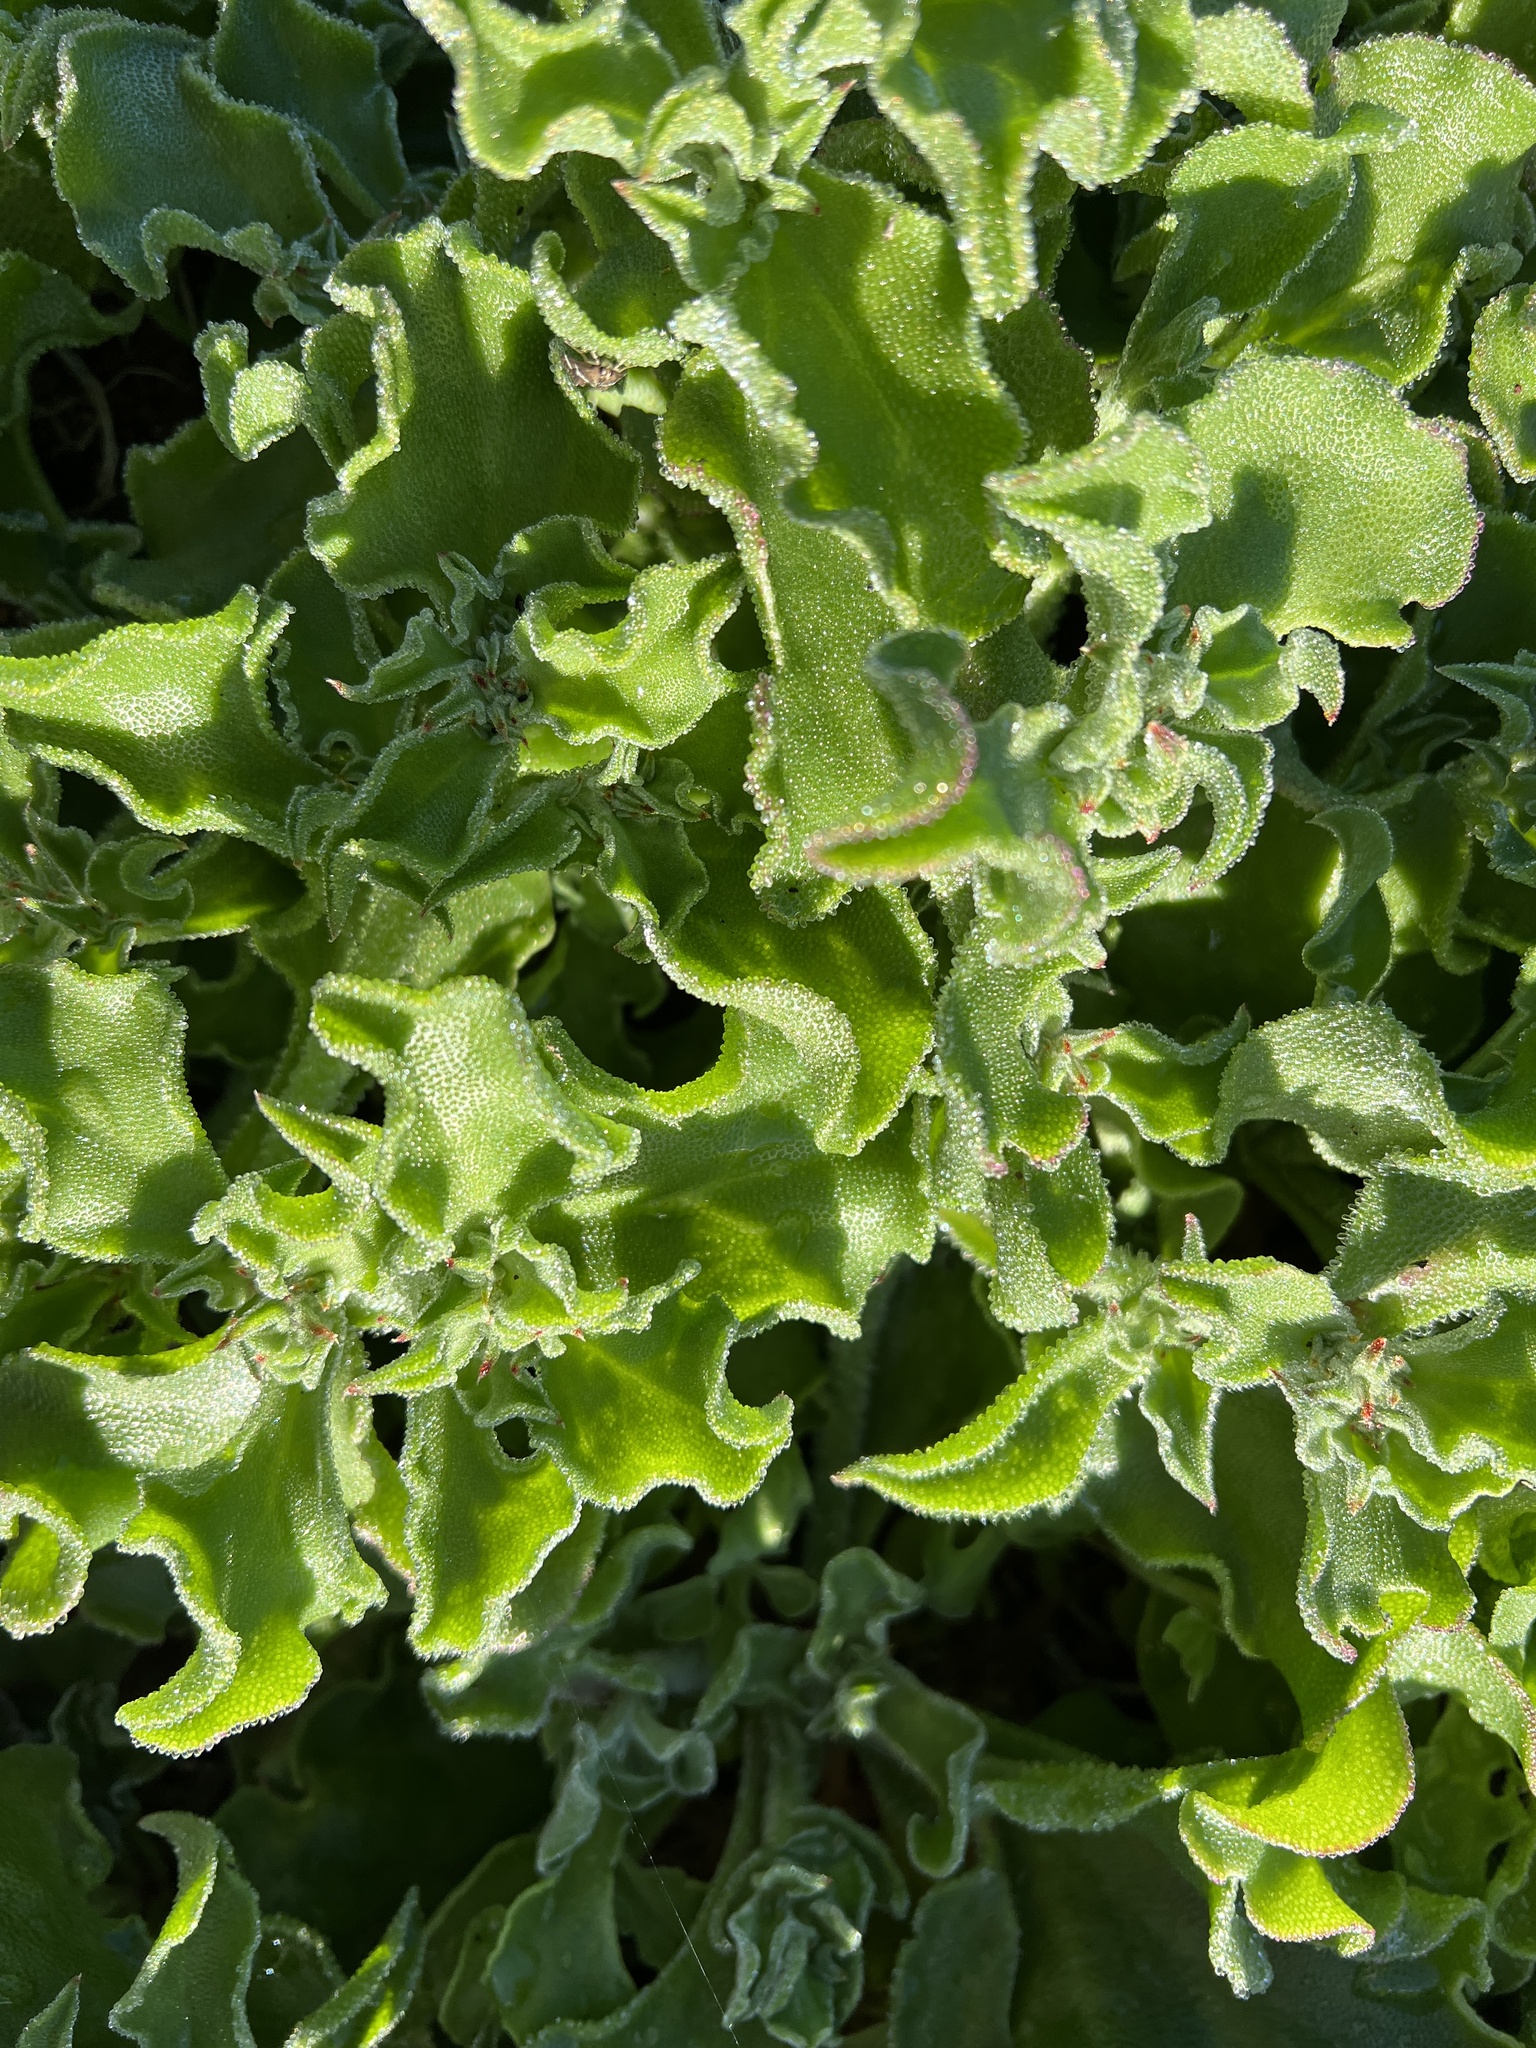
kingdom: Plantae
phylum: Tracheophyta
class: Magnoliopsida
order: Caryophyllales
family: Aizoaceae
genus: Mesembryanthemum
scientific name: Mesembryanthemum crystallinum
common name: Common iceplant
